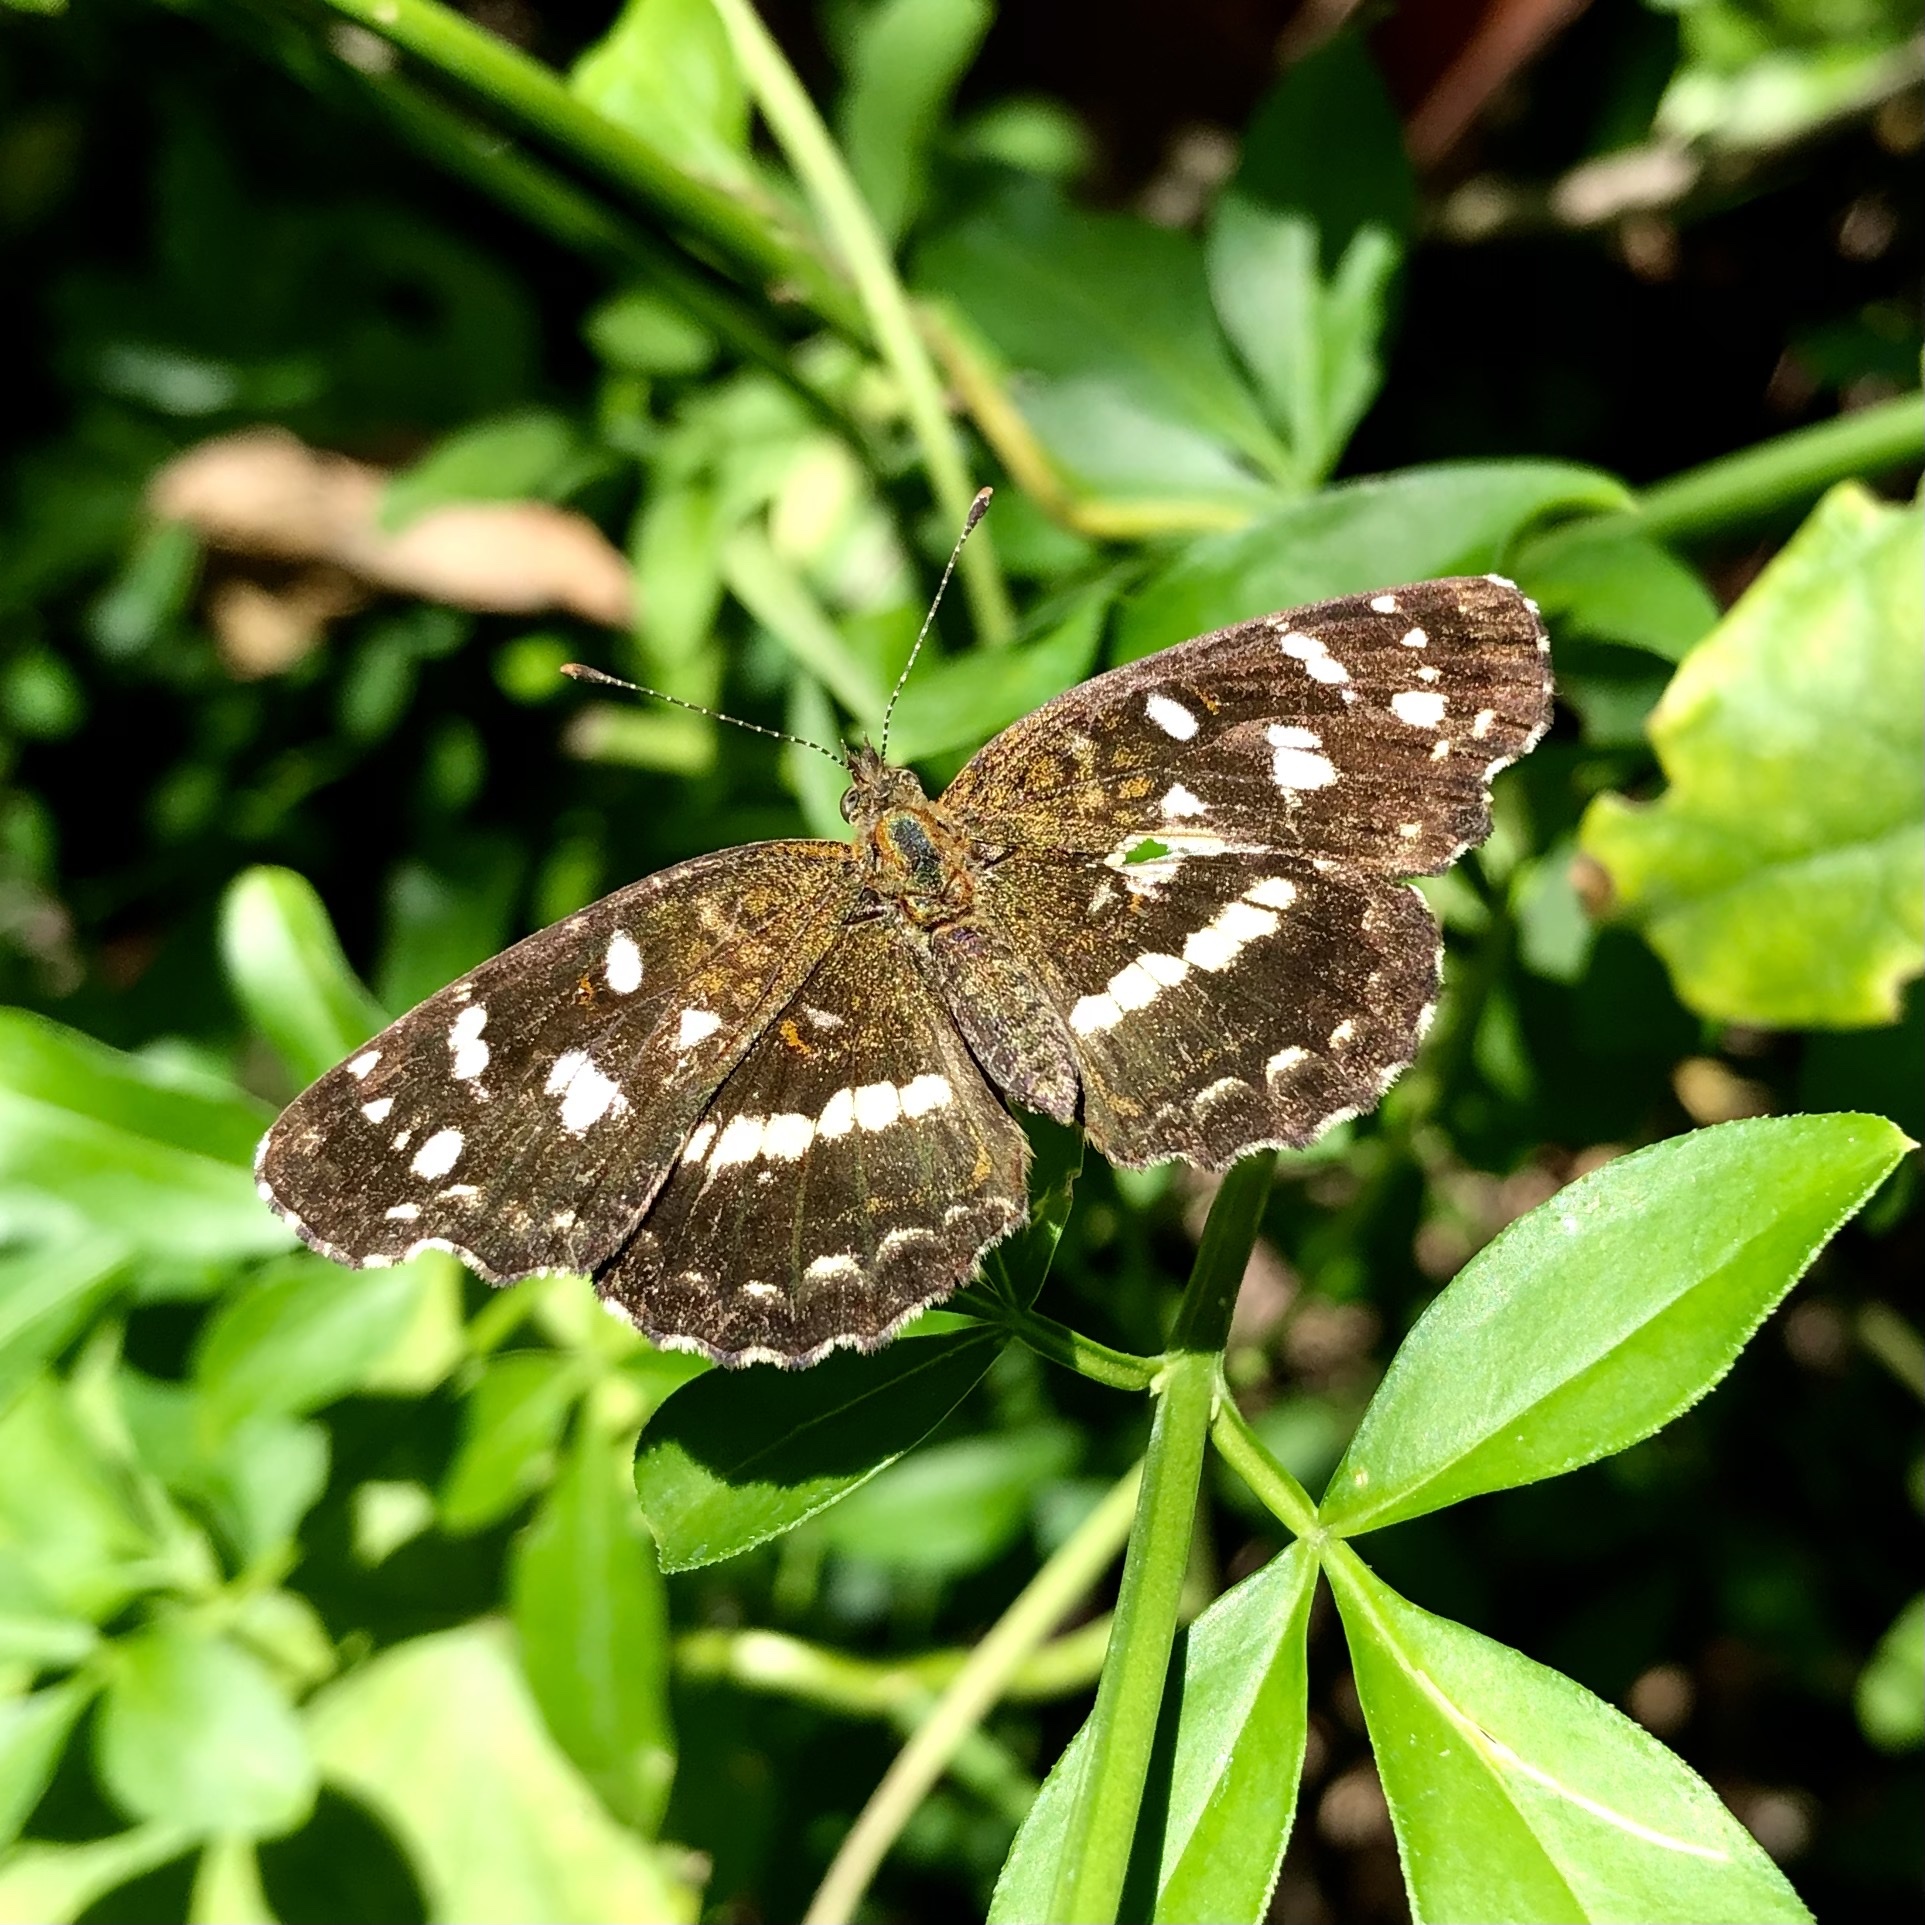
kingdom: Animalia
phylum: Arthropoda
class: Insecta
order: Lepidoptera
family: Nymphalidae
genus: Ortilia
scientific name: Ortilia ithra
